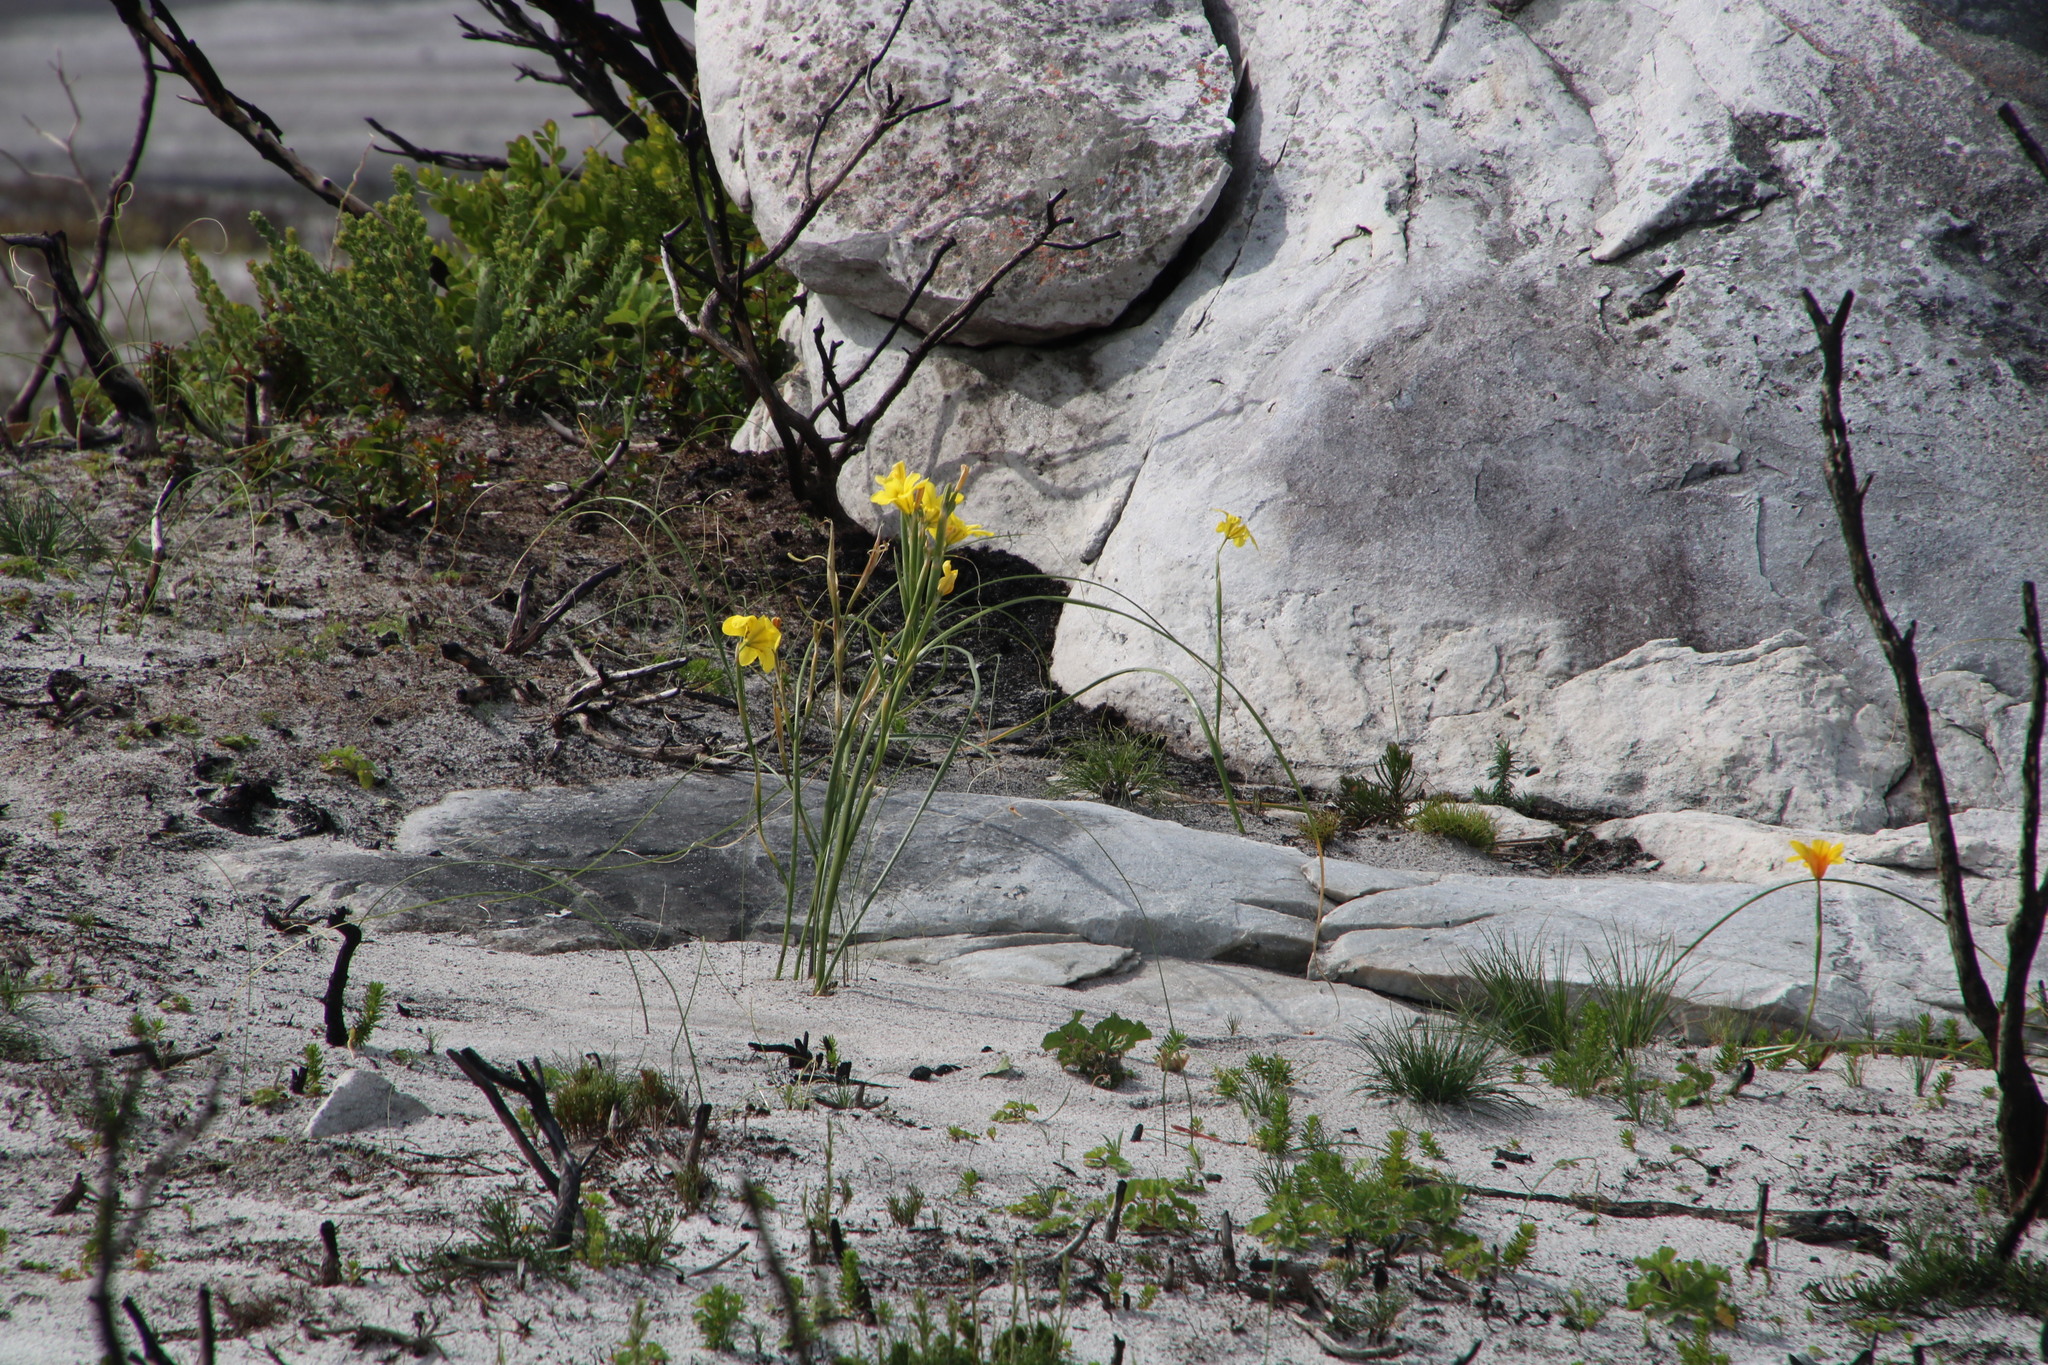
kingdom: Plantae
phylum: Tracheophyta
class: Liliopsida
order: Asparagales
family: Iridaceae
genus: Moraea
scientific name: Moraea ochroleuca
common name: Red tulp
